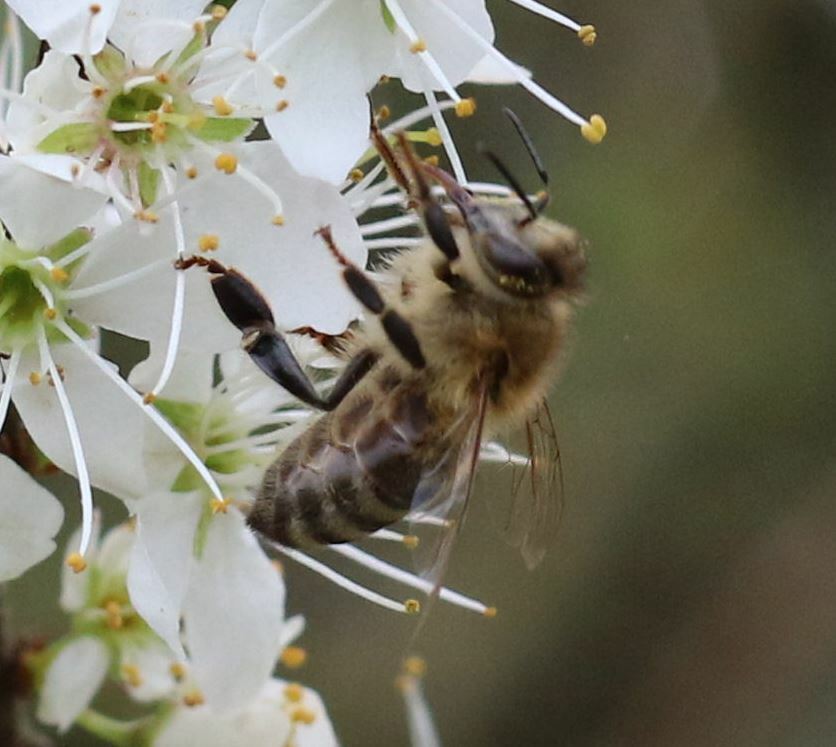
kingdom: Animalia
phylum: Arthropoda
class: Insecta
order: Hymenoptera
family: Apidae
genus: Apis
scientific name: Apis mellifera
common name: Honey bee
